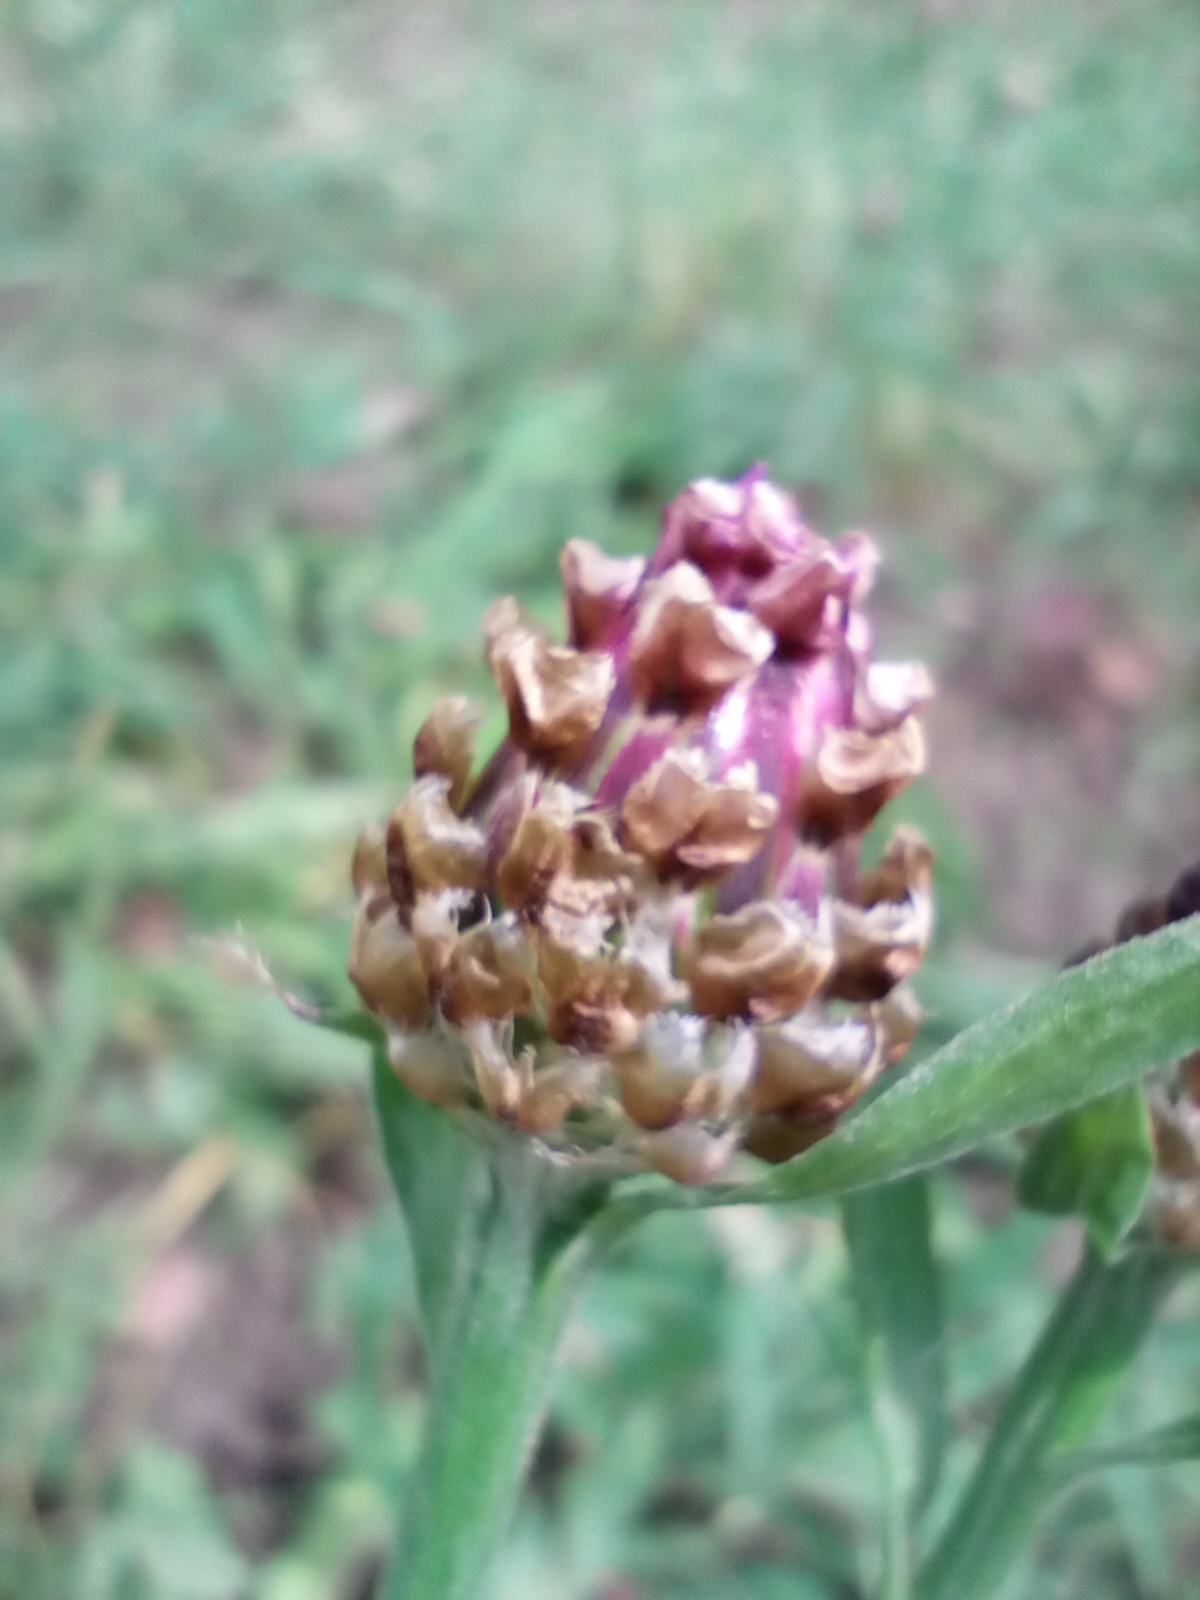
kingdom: Plantae
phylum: Tracheophyta
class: Magnoliopsida
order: Asterales
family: Asteraceae
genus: Centaurea
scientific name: Centaurea jacea
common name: Brown knapweed
